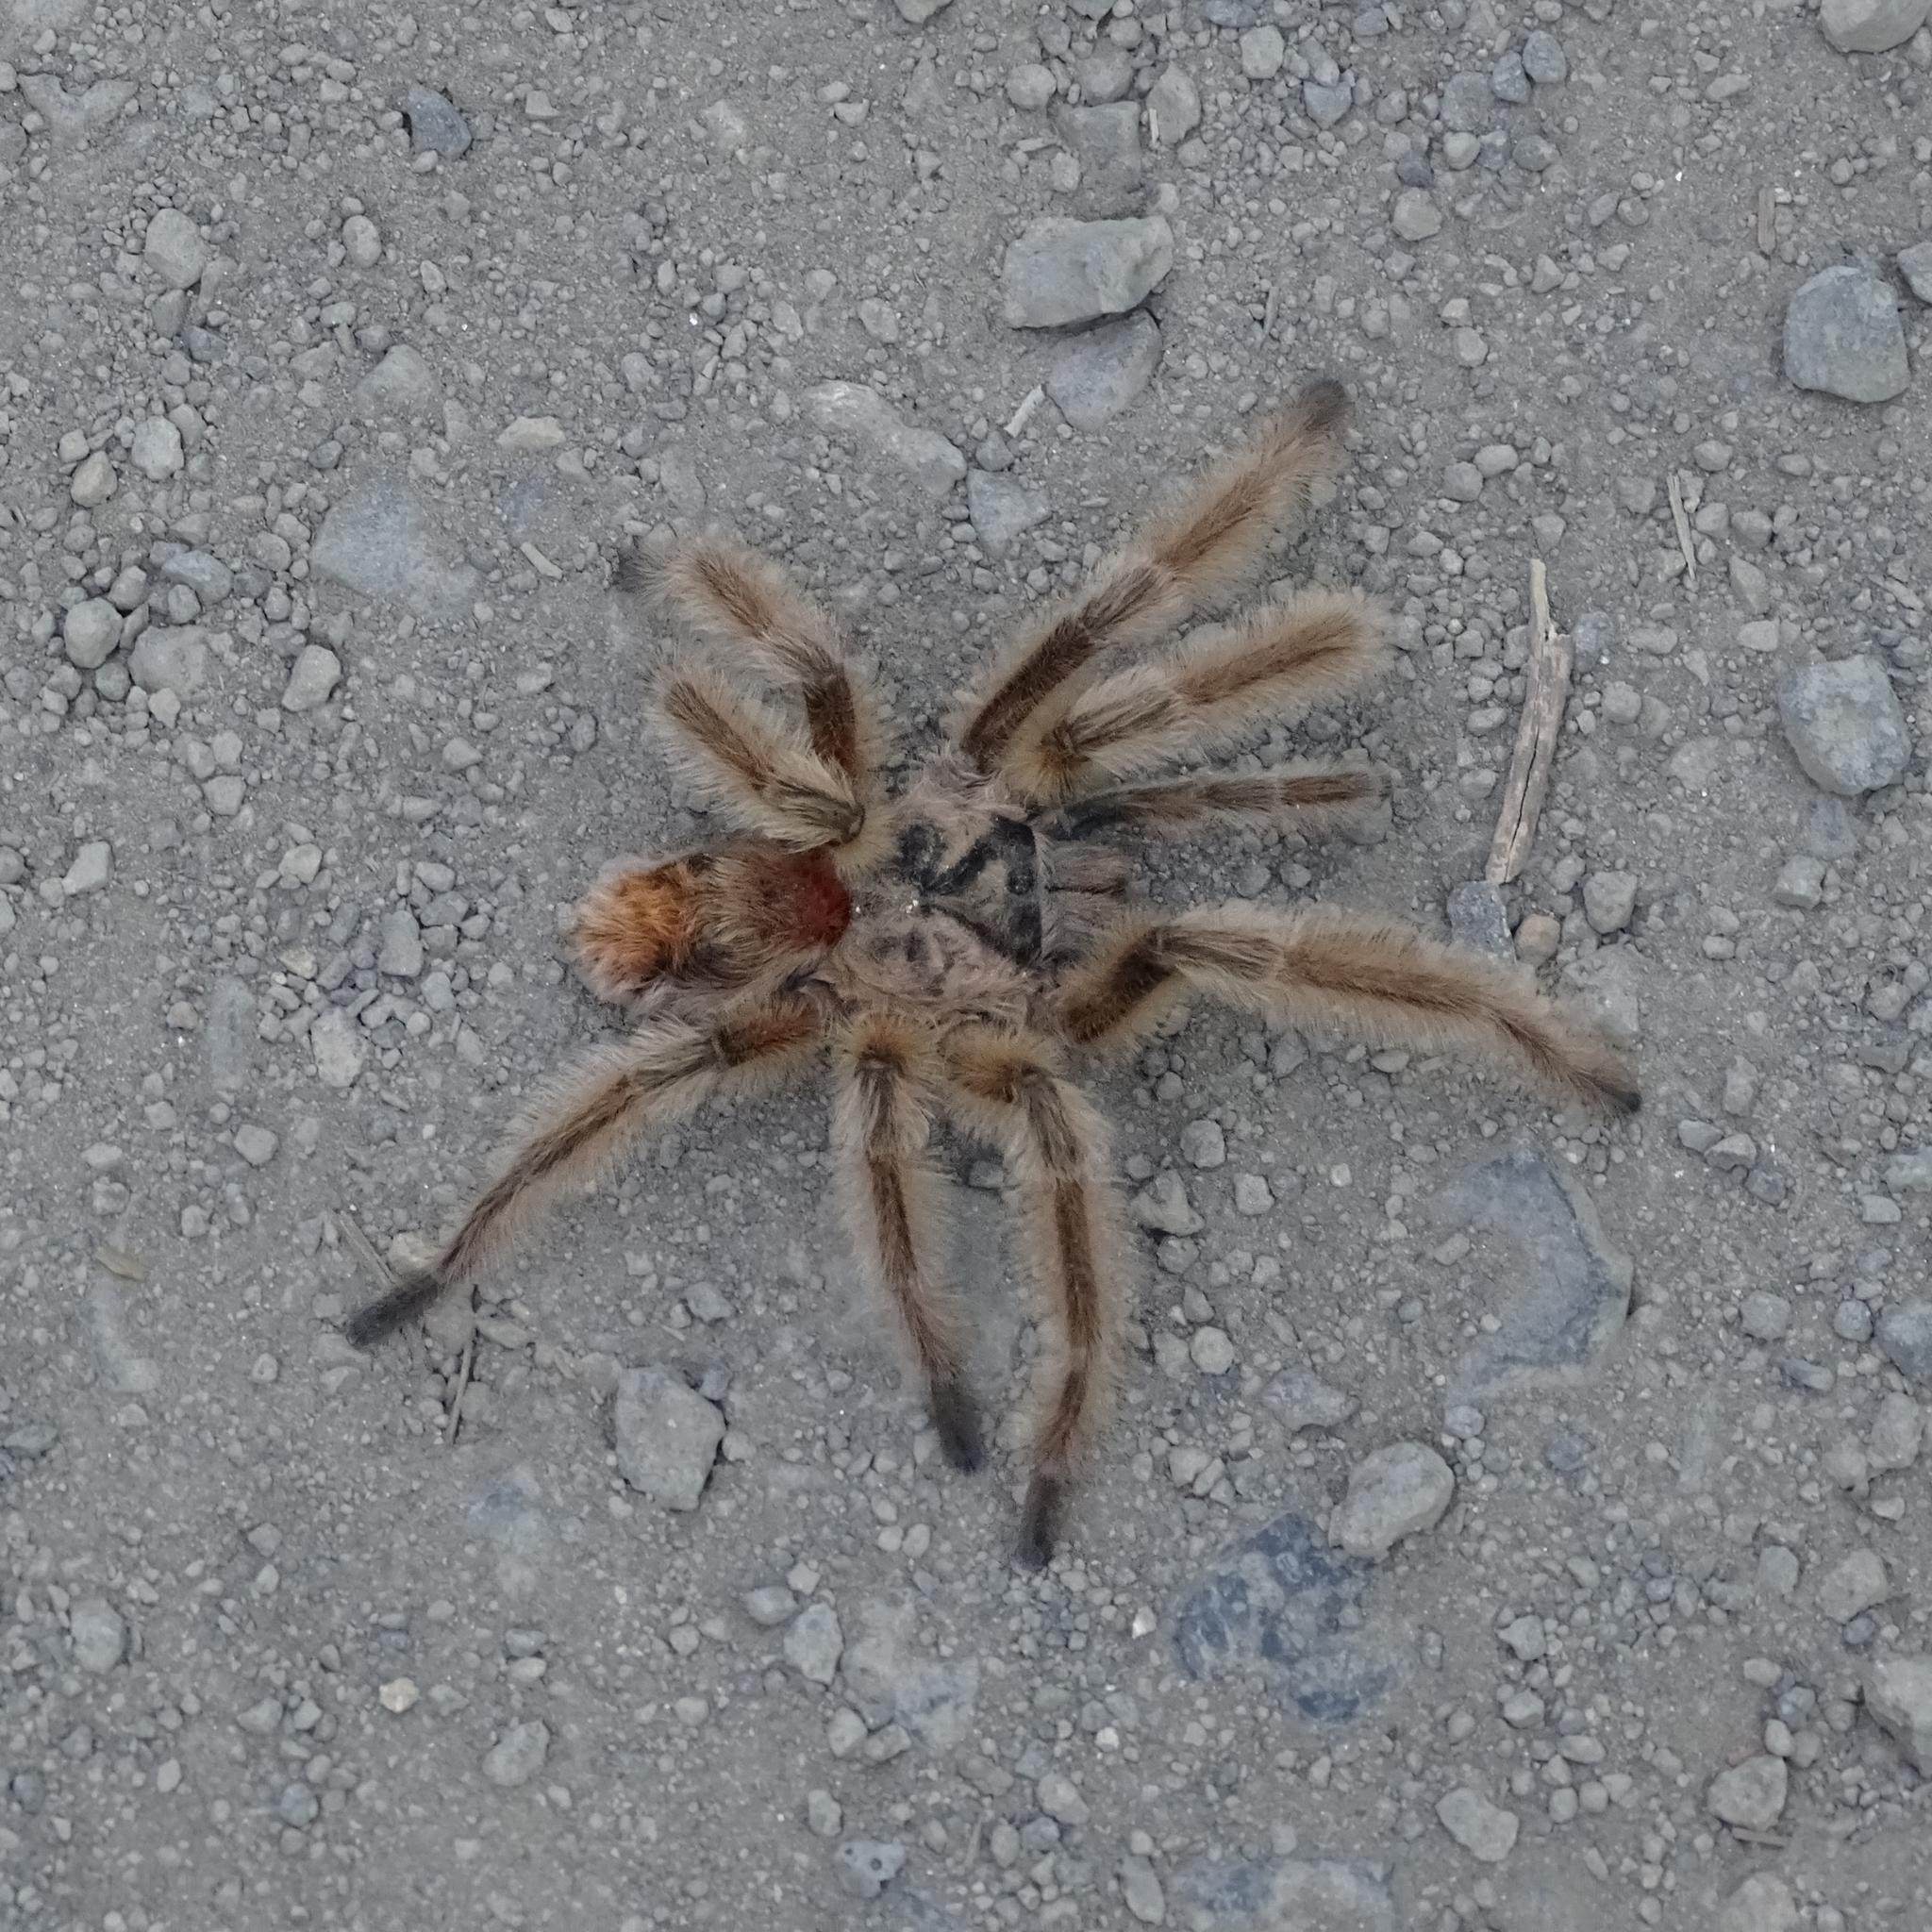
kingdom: Animalia
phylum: Arthropoda
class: Arachnida
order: Araneae
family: Theraphosidae
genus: Phrixotrichus
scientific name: Phrixotrichus vulpinus
